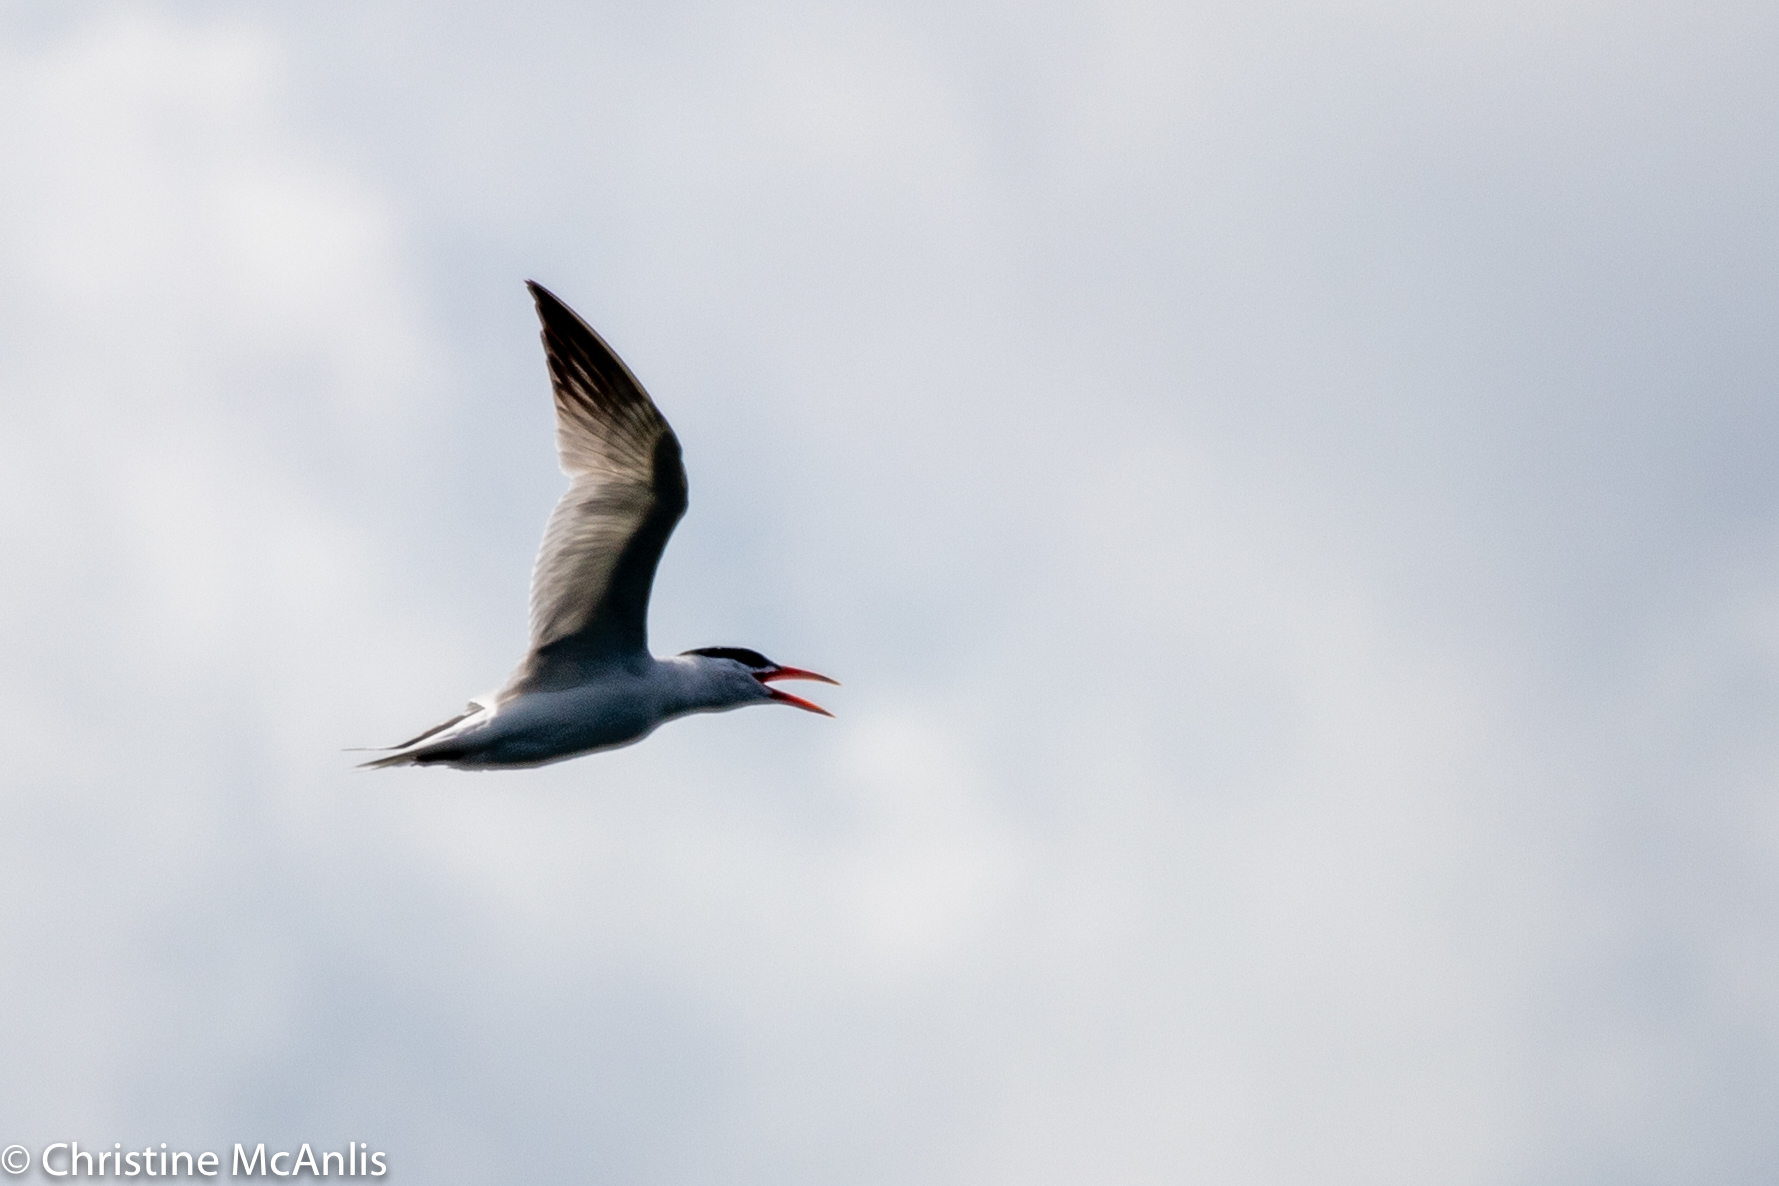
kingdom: Animalia
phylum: Chordata
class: Aves
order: Charadriiformes
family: Laridae
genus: Hydroprogne
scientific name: Hydroprogne caspia
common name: Caspian tern
